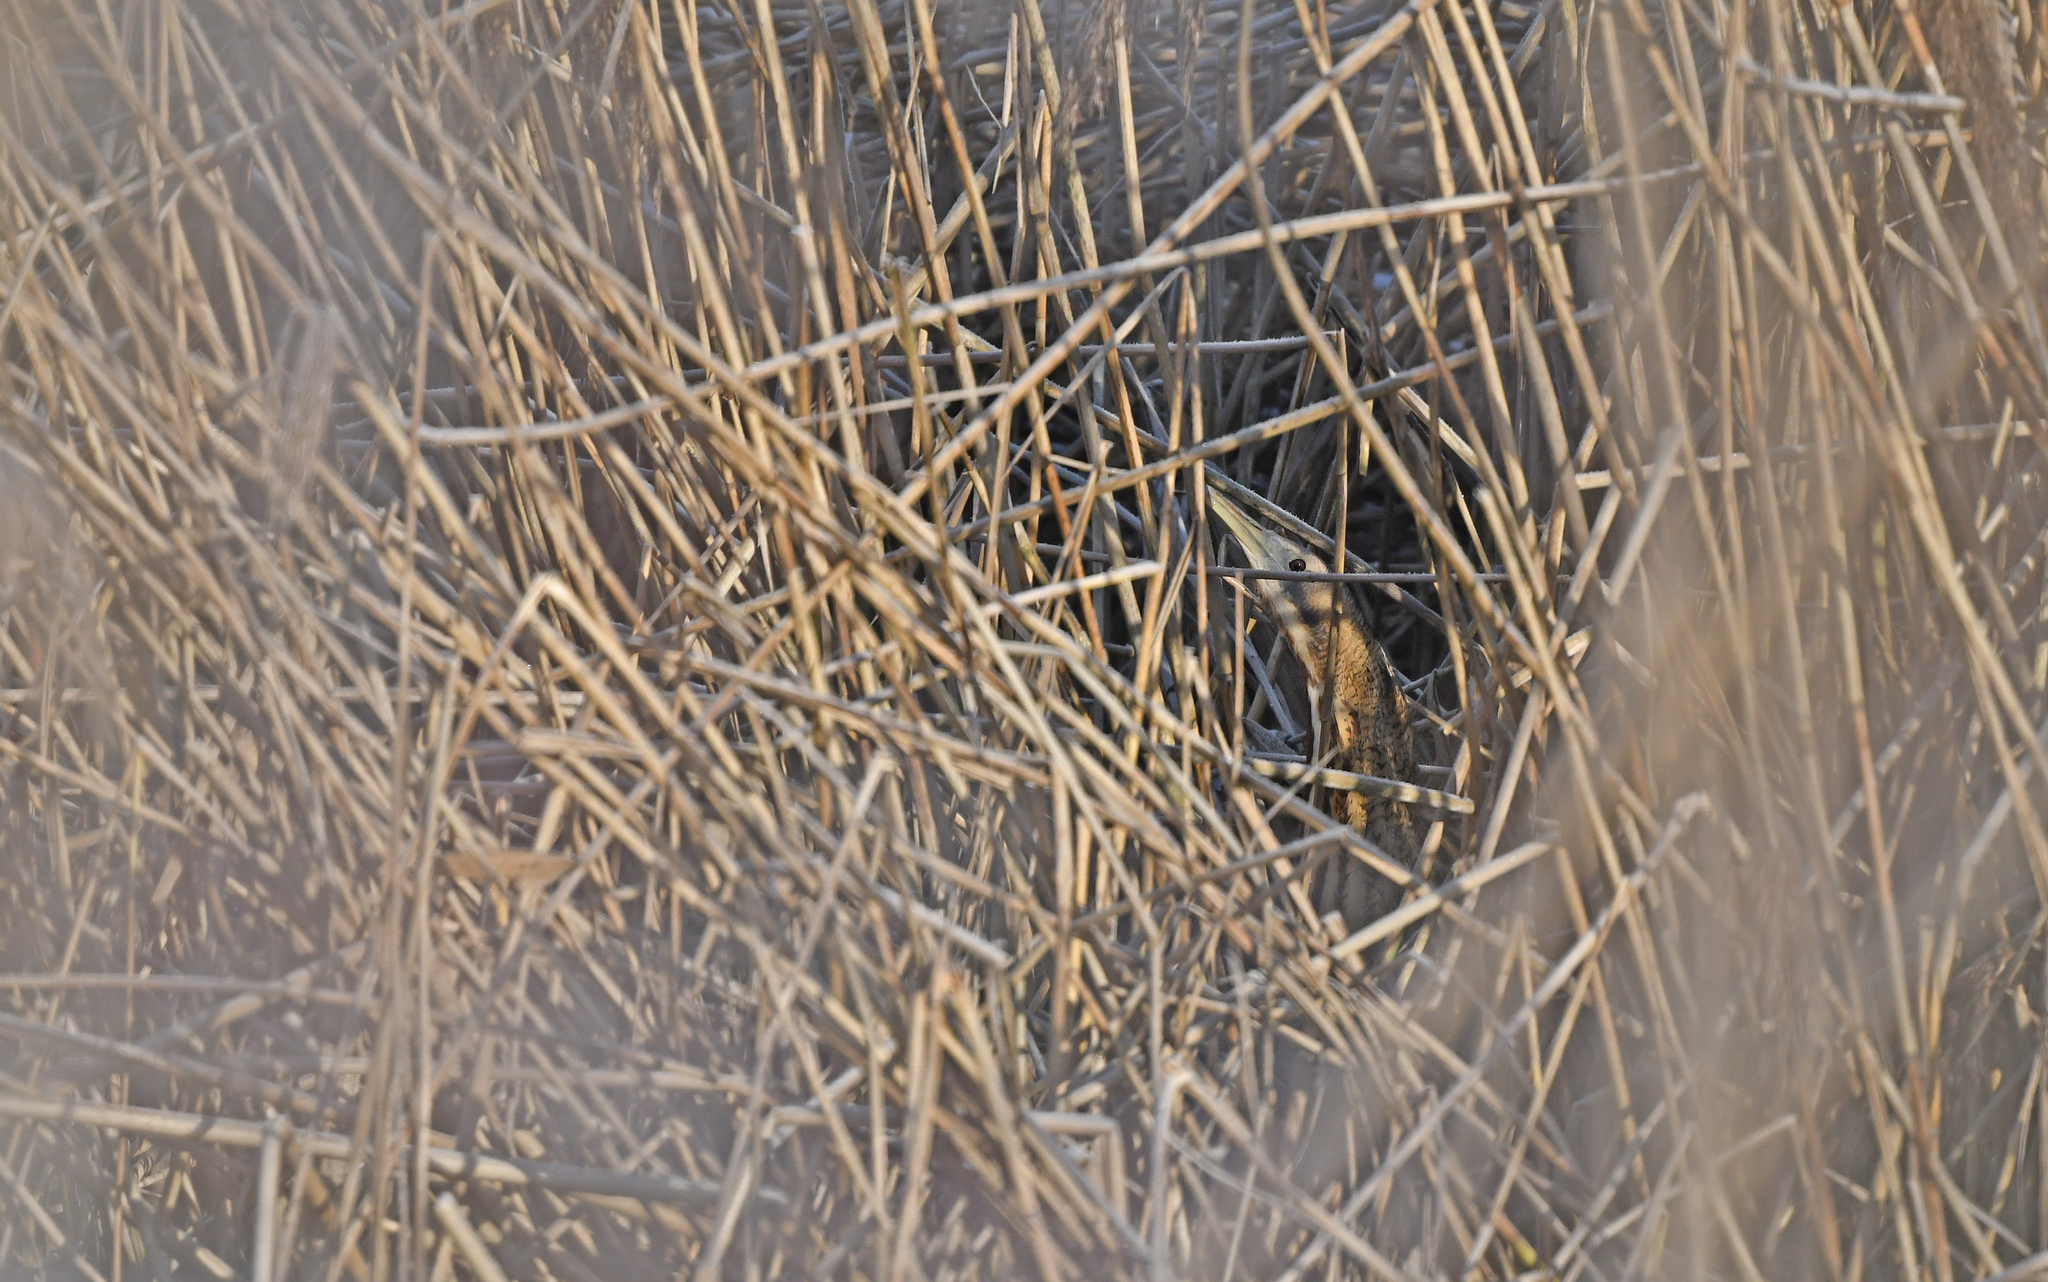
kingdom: Animalia
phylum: Chordata
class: Aves
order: Pelecaniformes
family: Ardeidae
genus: Botaurus
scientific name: Botaurus stellaris
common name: Eurasian bittern
